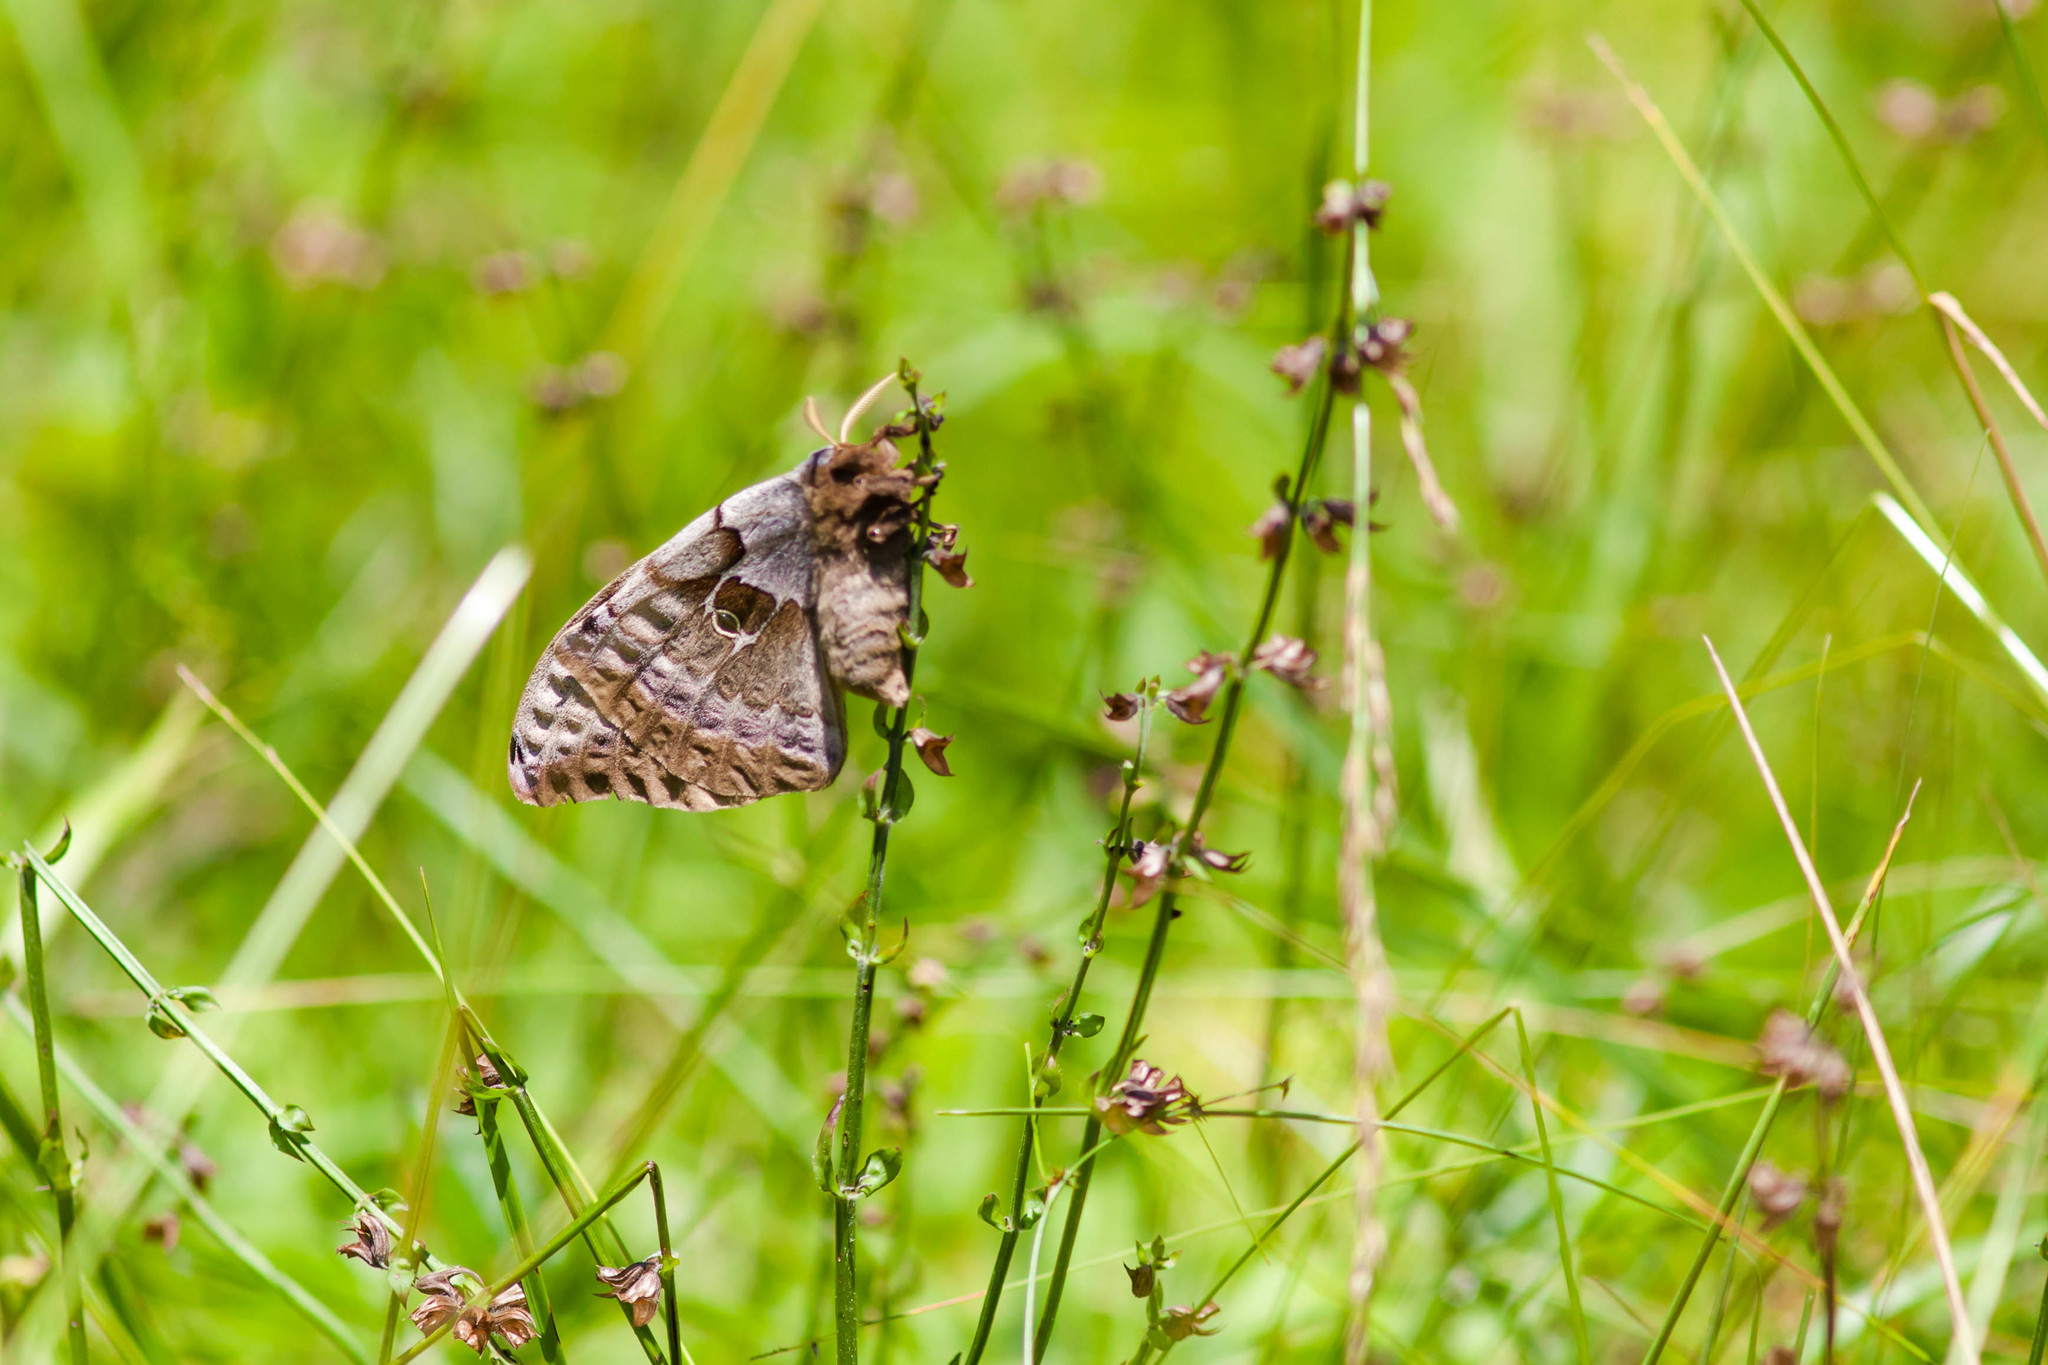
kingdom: Animalia
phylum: Arthropoda
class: Insecta
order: Lepidoptera
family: Saturniidae
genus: Antheraea
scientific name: Antheraea polyphemus
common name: Polyphemus moth
